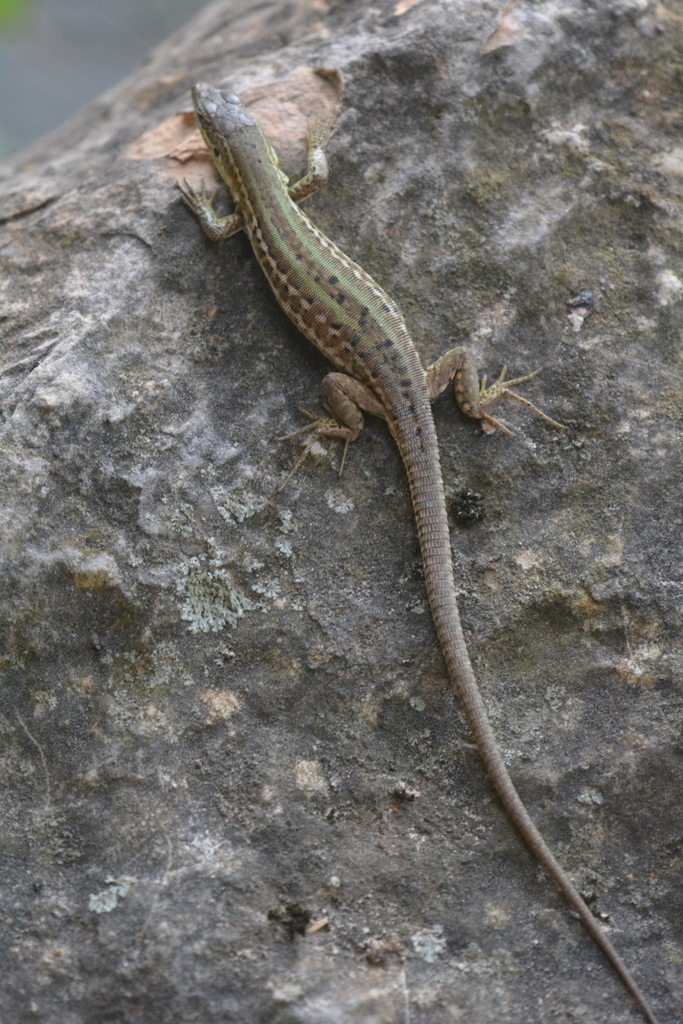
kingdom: Animalia
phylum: Chordata
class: Squamata
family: Lacertidae
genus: Podarcis
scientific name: Podarcis siculus
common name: Italian wall lizard
